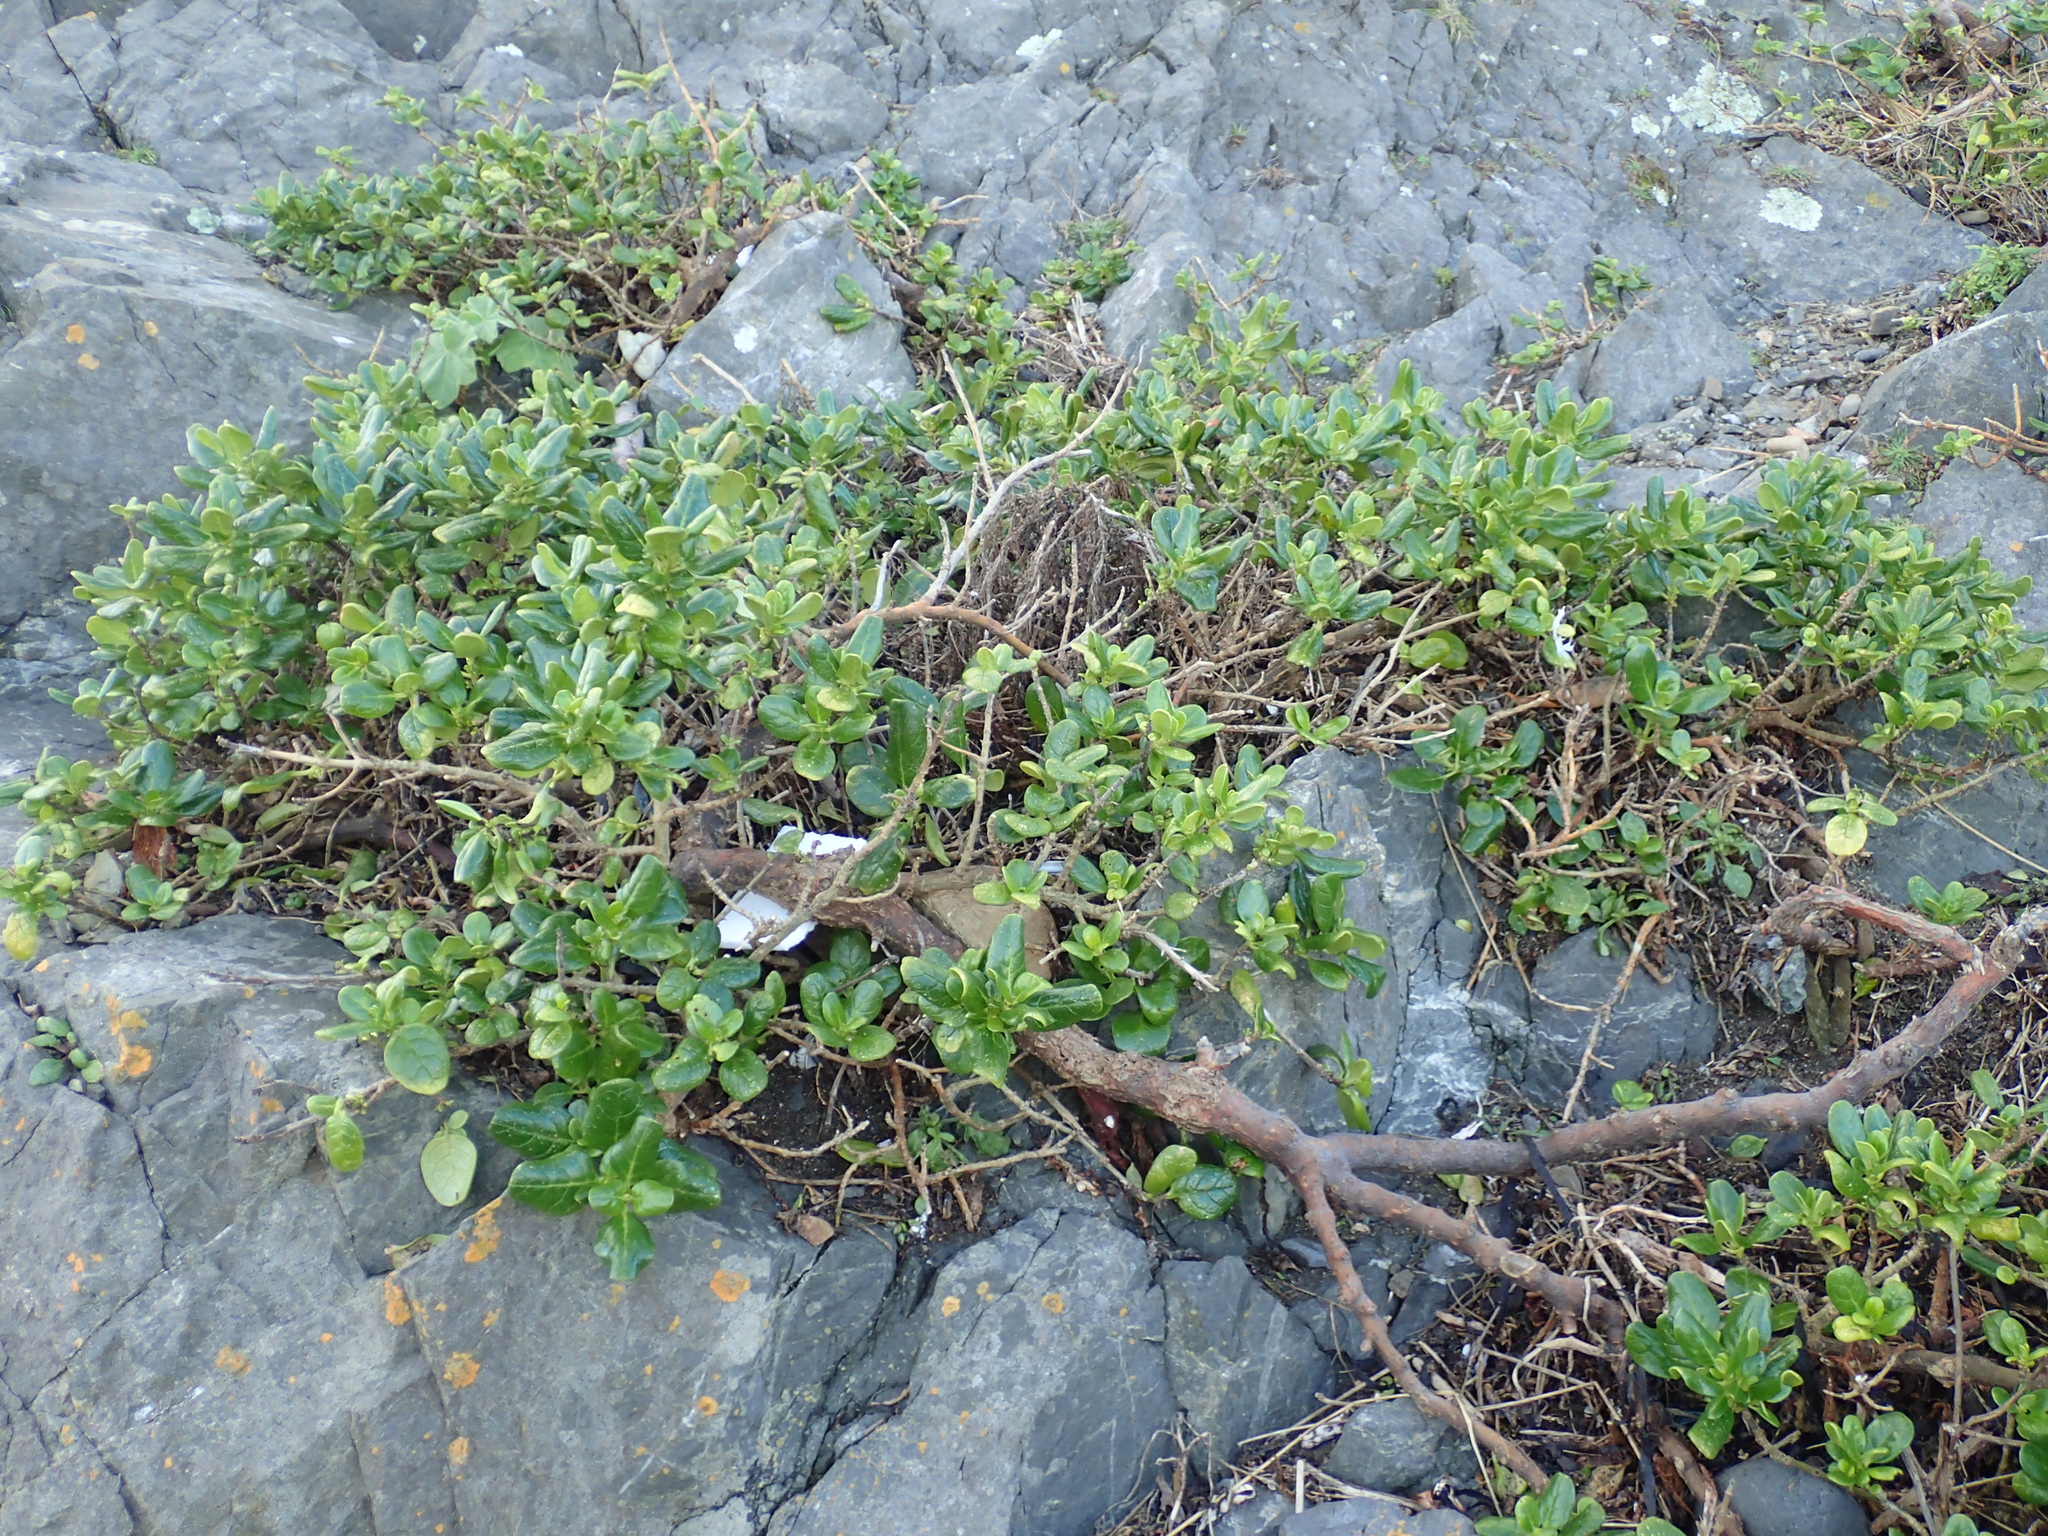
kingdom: Plantae
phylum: Tracheophyta
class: Magnoliopsida
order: Gentianales
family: Rubiaceae
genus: Coprosma
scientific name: Coprosma repens
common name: Tree bedstraw
